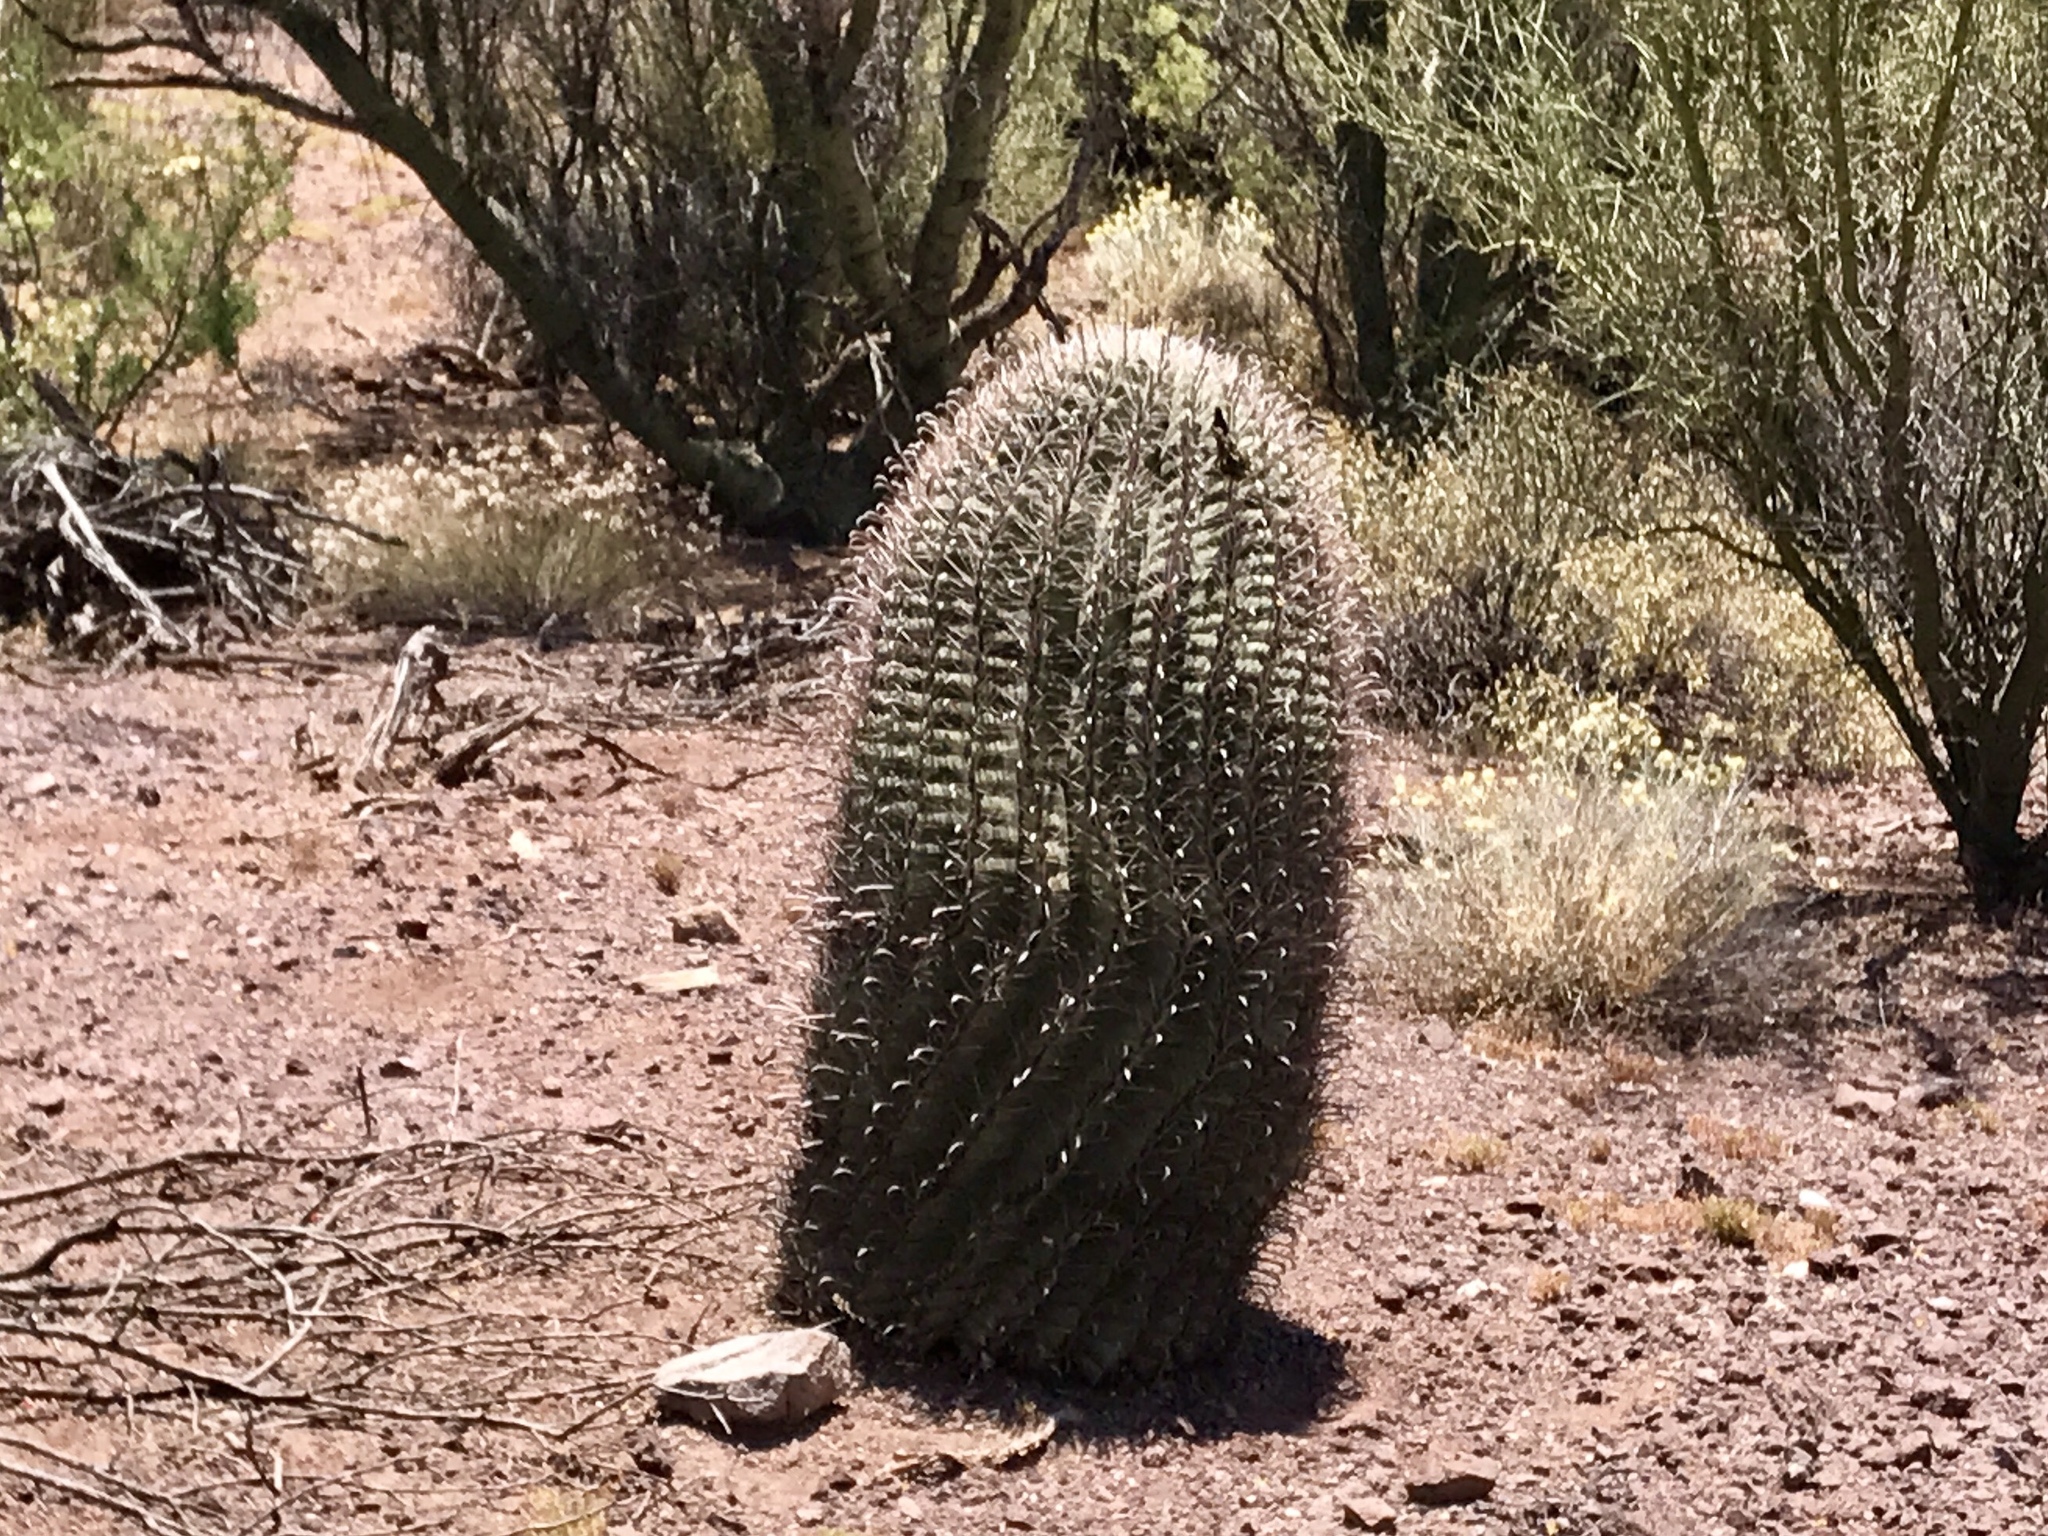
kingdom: Plantae
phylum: Tracheophyta
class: Magnoliopsida
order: Caryophyllales
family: Cactaceae
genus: Ferocactus
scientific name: Ferocactus wislizeni
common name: Candy barrel cactus
